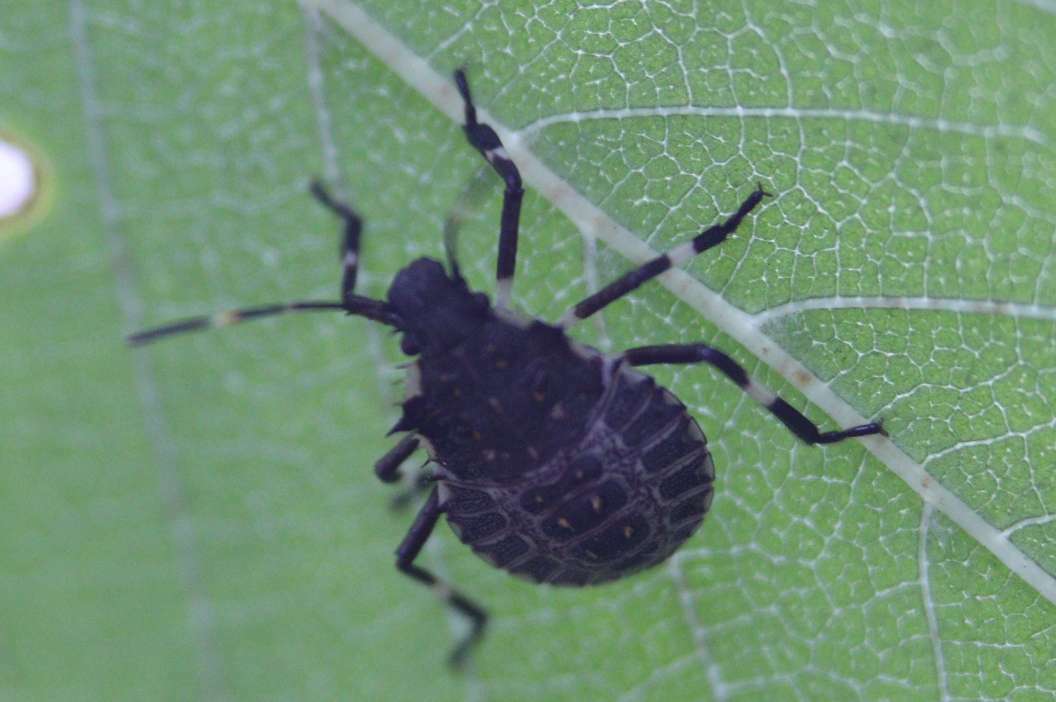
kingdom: Animalia
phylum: Arthropoda
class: Insecta
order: Hemiptera
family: Pentatomidae
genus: Halyomorpha
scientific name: Halyomorpha halys
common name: Brown marmorated stink bug
